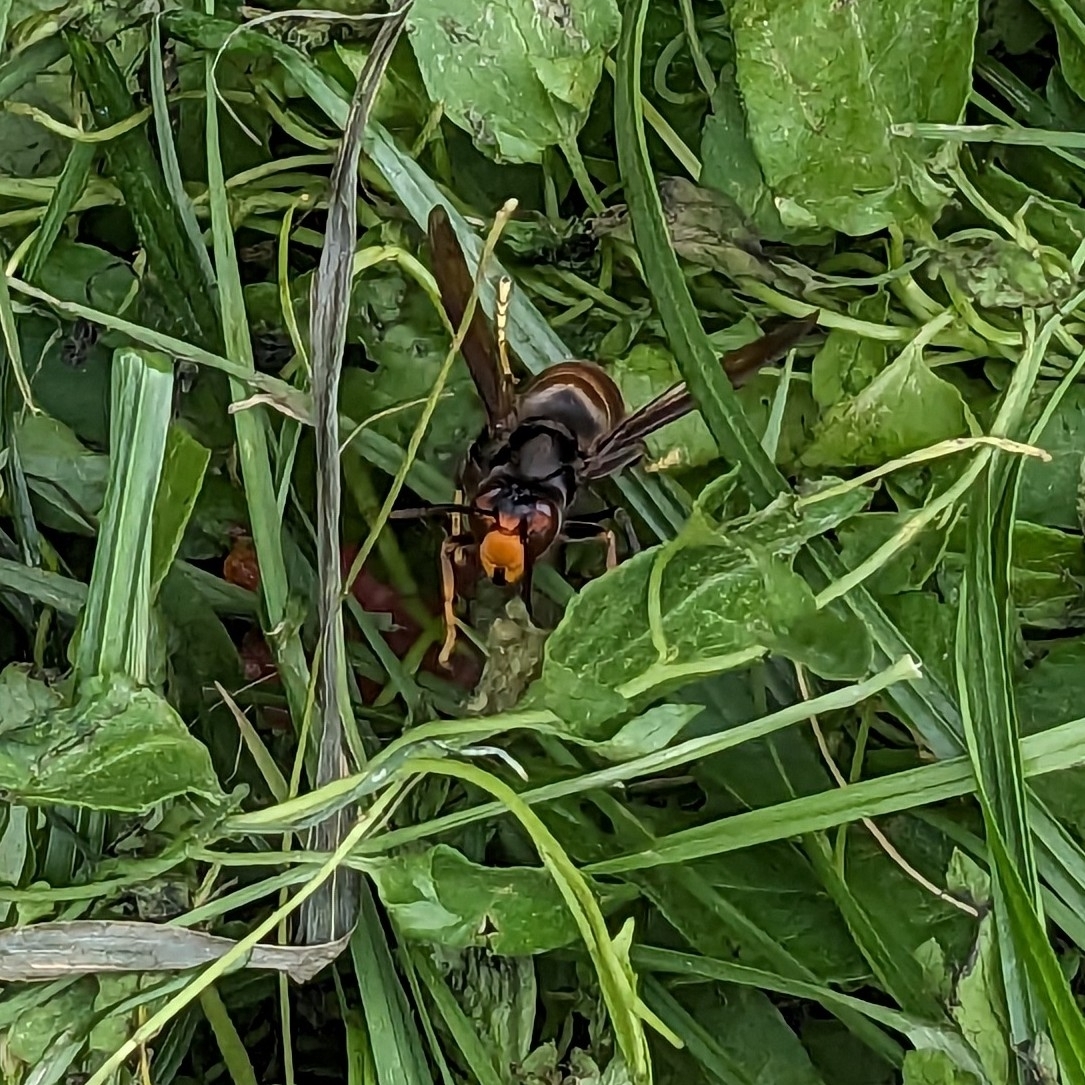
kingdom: Animalia
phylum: Arthropoda
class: Insecta
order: Hymenoptera
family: Vespidae
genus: Vespa
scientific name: Vespa velutina
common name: Asian hornet
